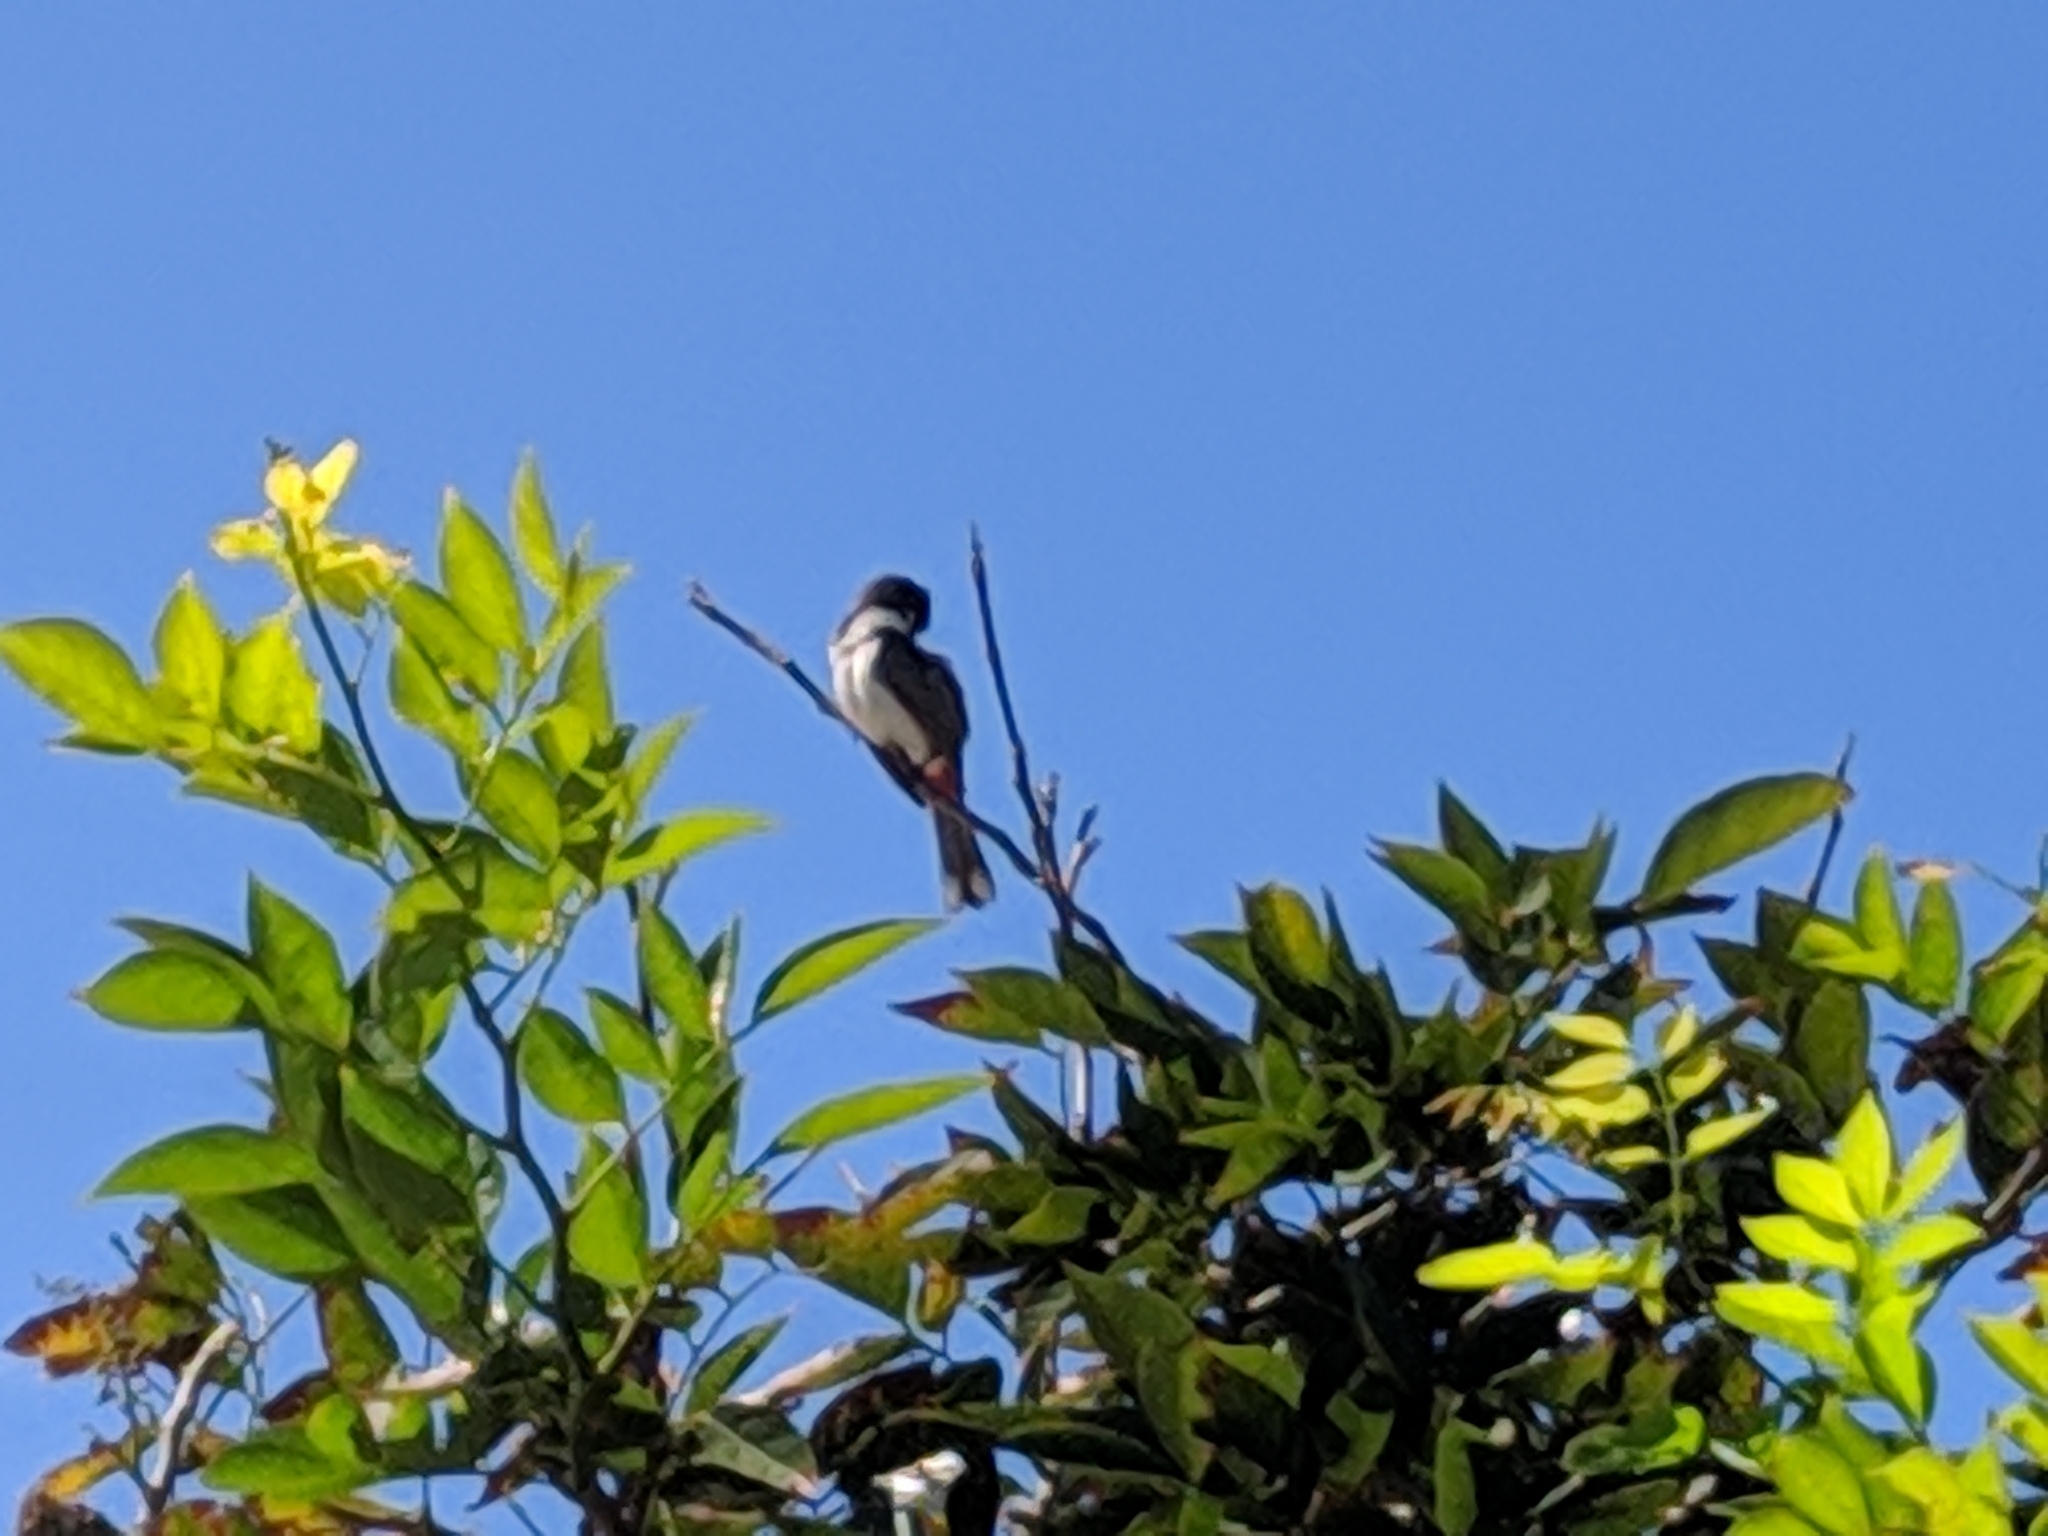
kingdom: Animalia
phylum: Chordata
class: Aves
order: Passeriformes
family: Pycnonotidae
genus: Pycnonotus
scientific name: Pycnonotus jocosus
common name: Red-whiskered bulbul
